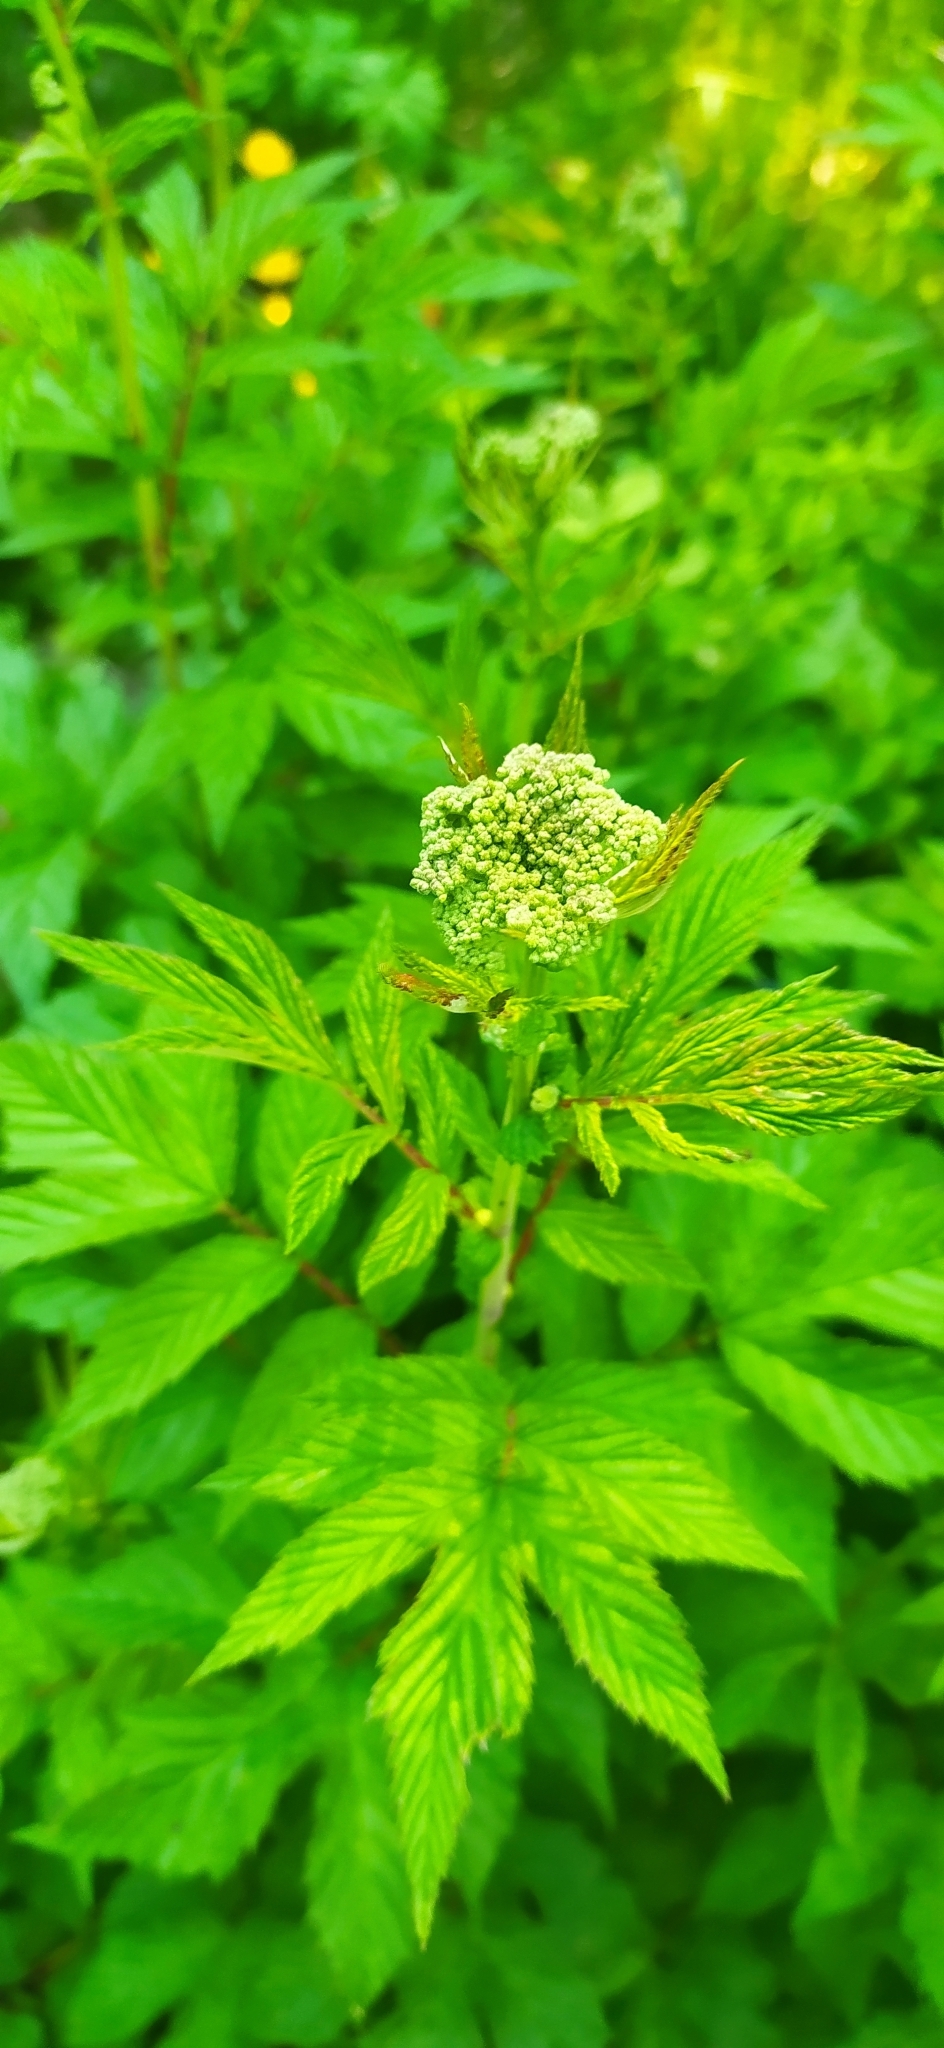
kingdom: Plantae
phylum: Tracheophyta
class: Magnoliopsida
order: Rosales
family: Rosaceae
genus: Filipendula
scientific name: Filipendula ulmaria
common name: Meadowsweet
